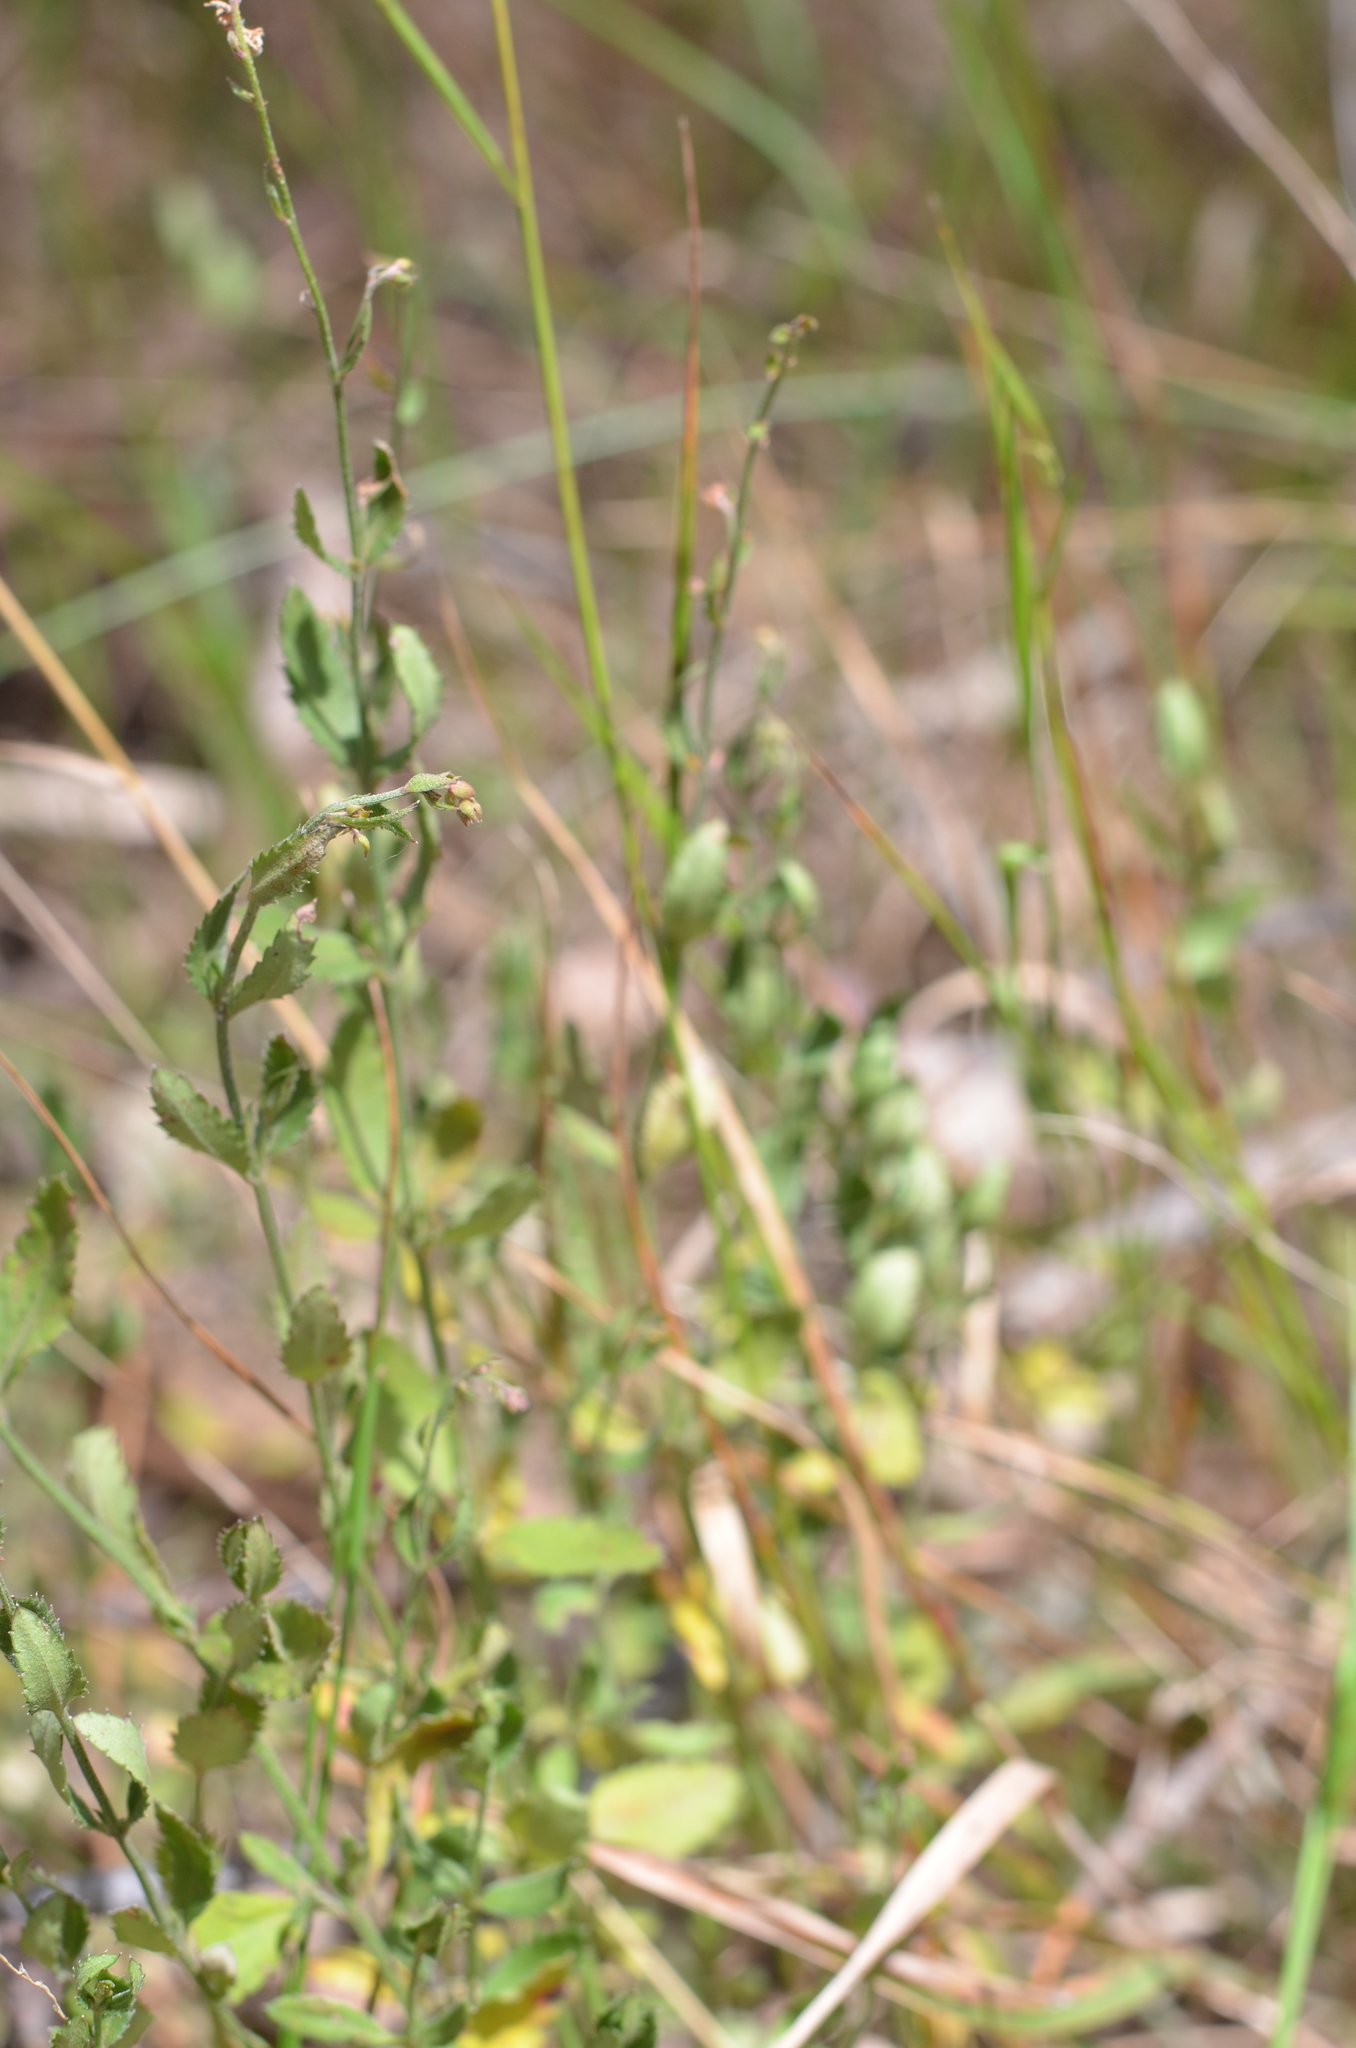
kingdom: Plantae
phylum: Tracheophyta
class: Magnoliopsida
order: Saxifragales
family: Haloragaceae
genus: Gonocarpus
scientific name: Gonocarpus tetragynus
